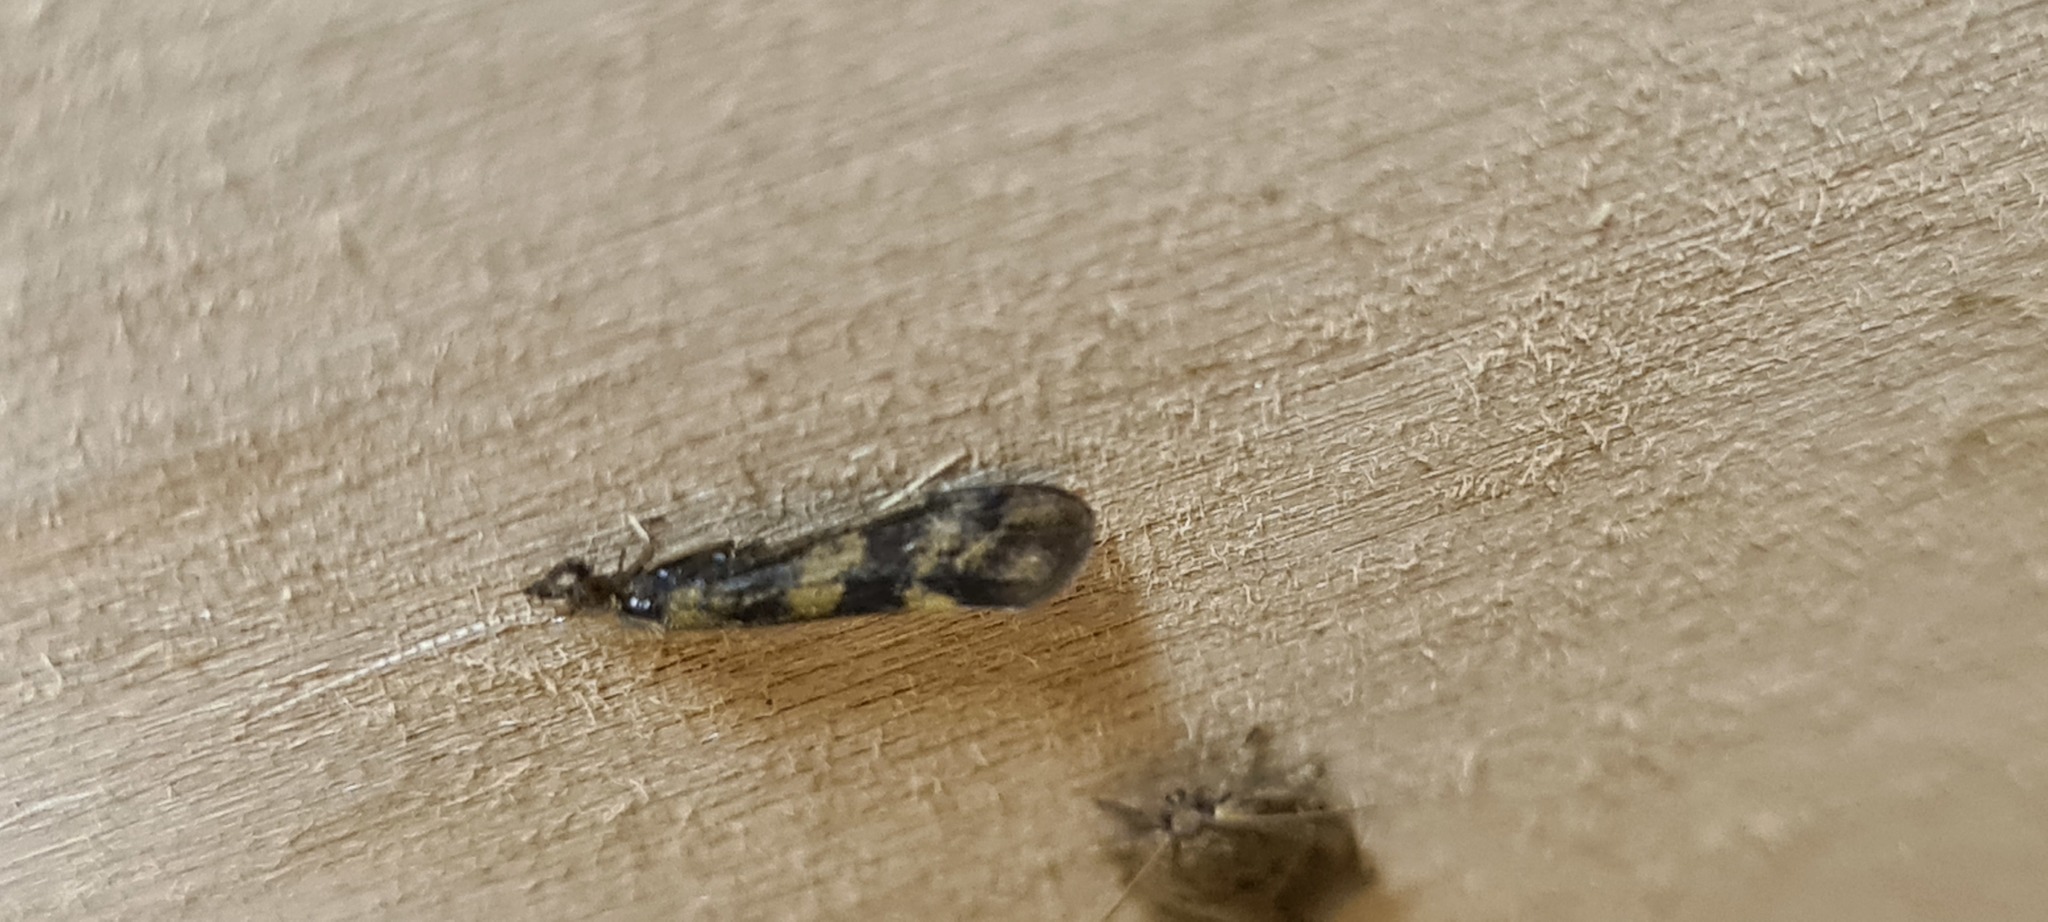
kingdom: Animalia
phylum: Arthropoda
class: Insecta
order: Trichoptera
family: Leptoceridae
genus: Mystacides
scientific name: Mystacides longicornis
